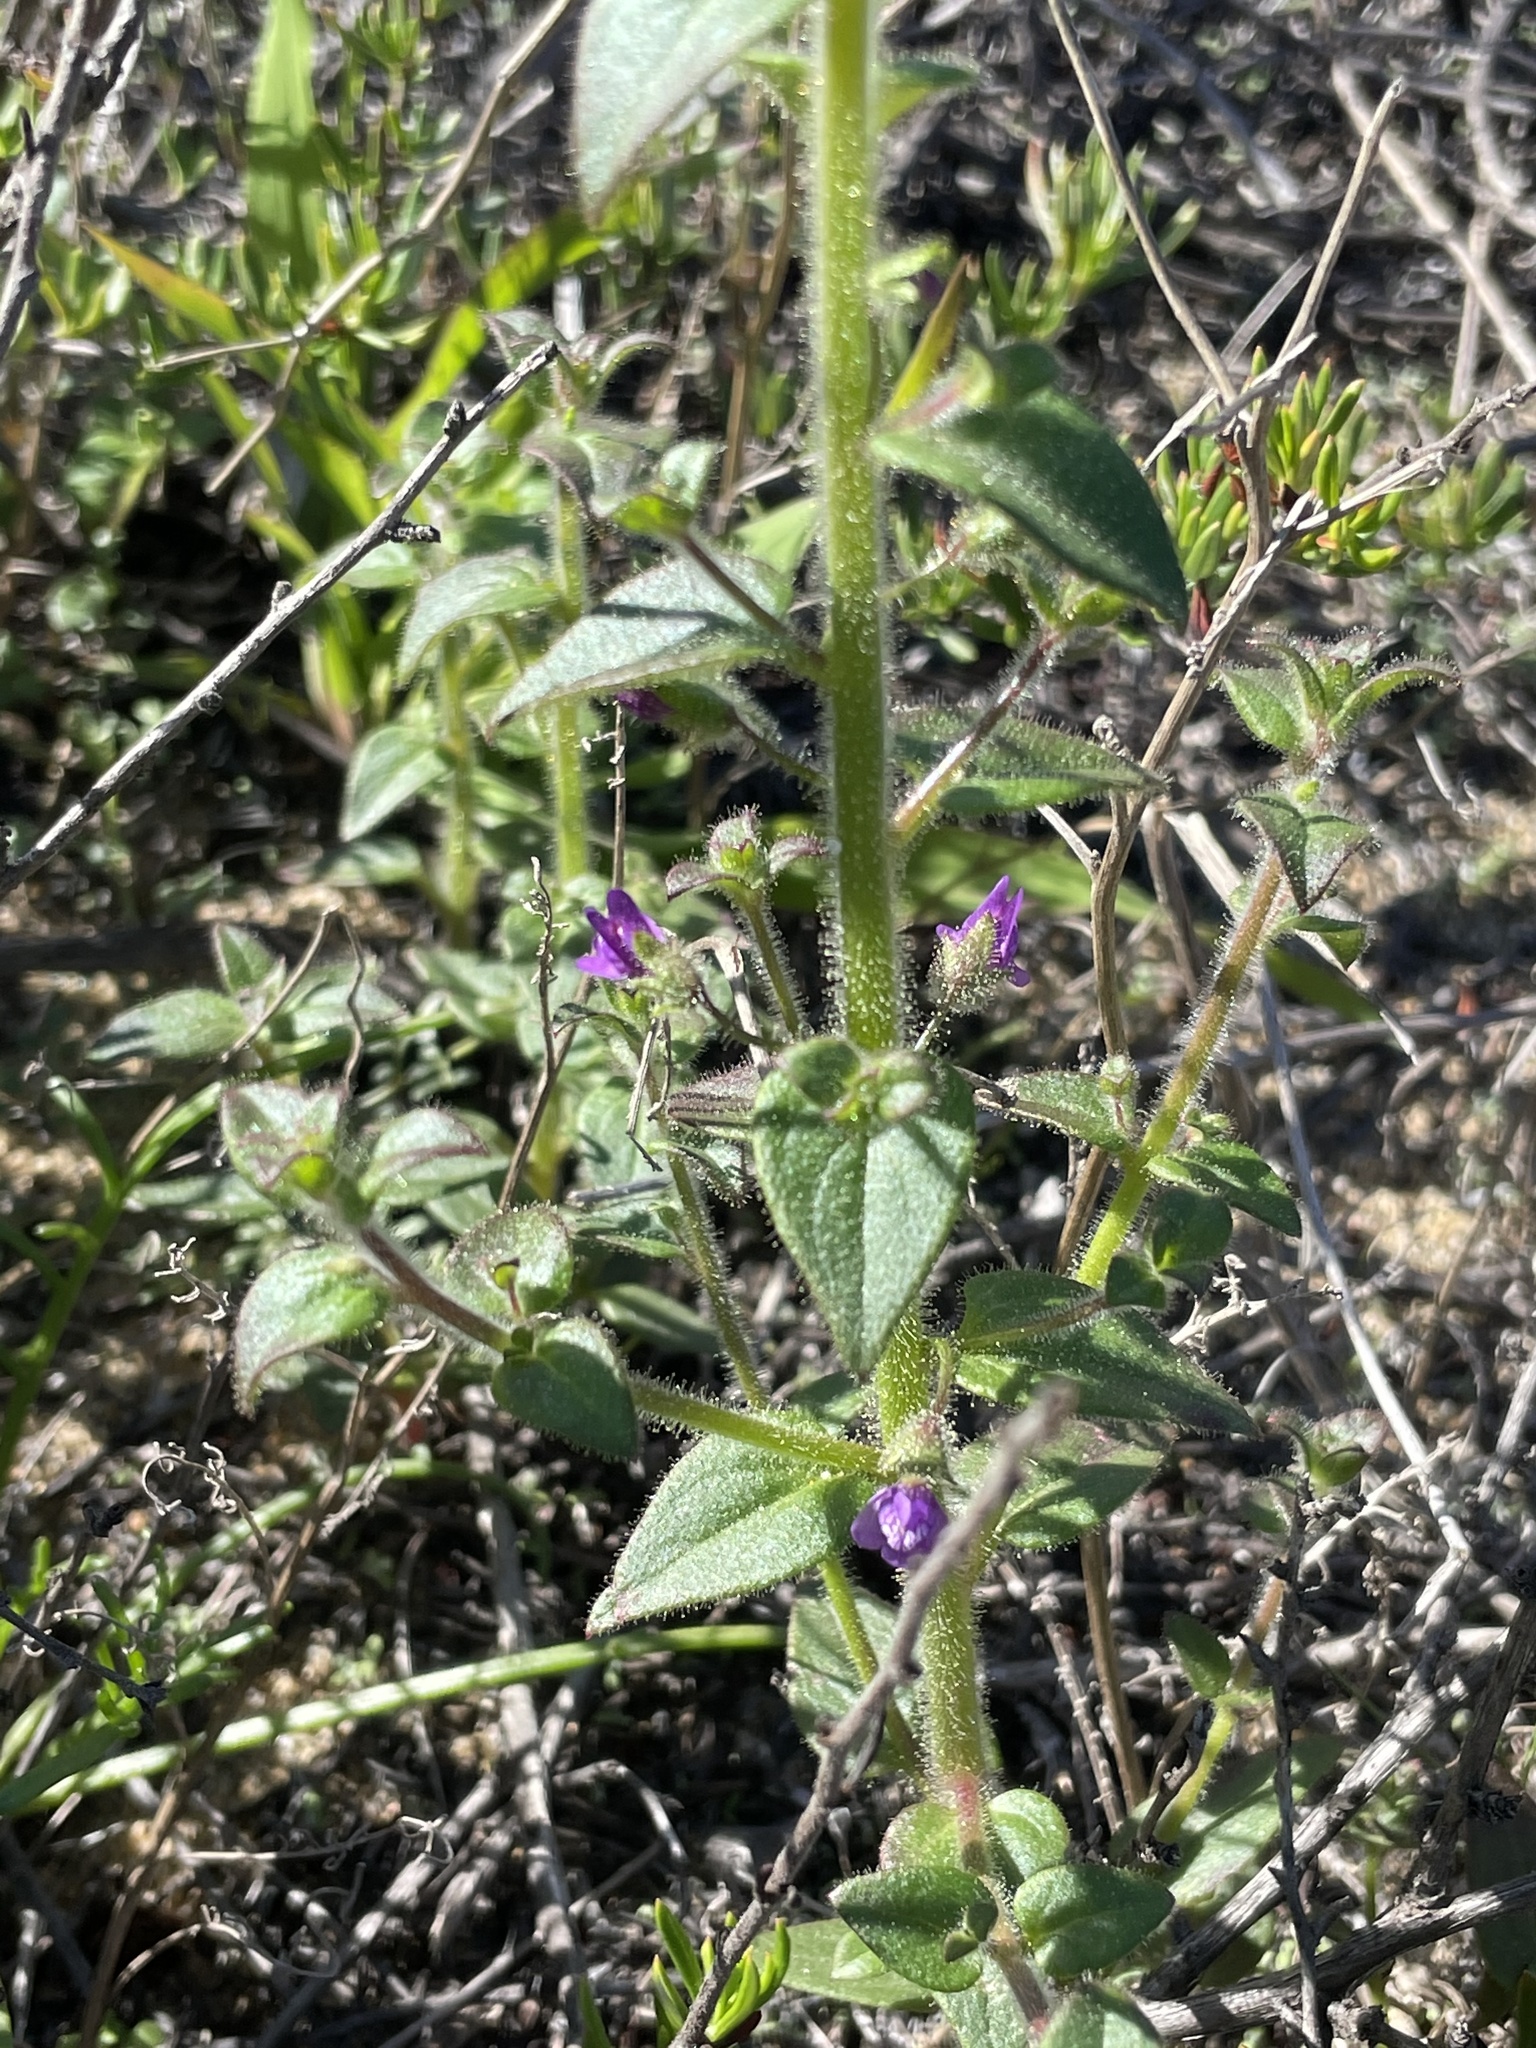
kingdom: Plantae
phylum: Tracheophyta
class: Magnoliopsida
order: Lamiales
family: Plantaginaceae
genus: Sairocarpus
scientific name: Sairocarpus nuttallianus
